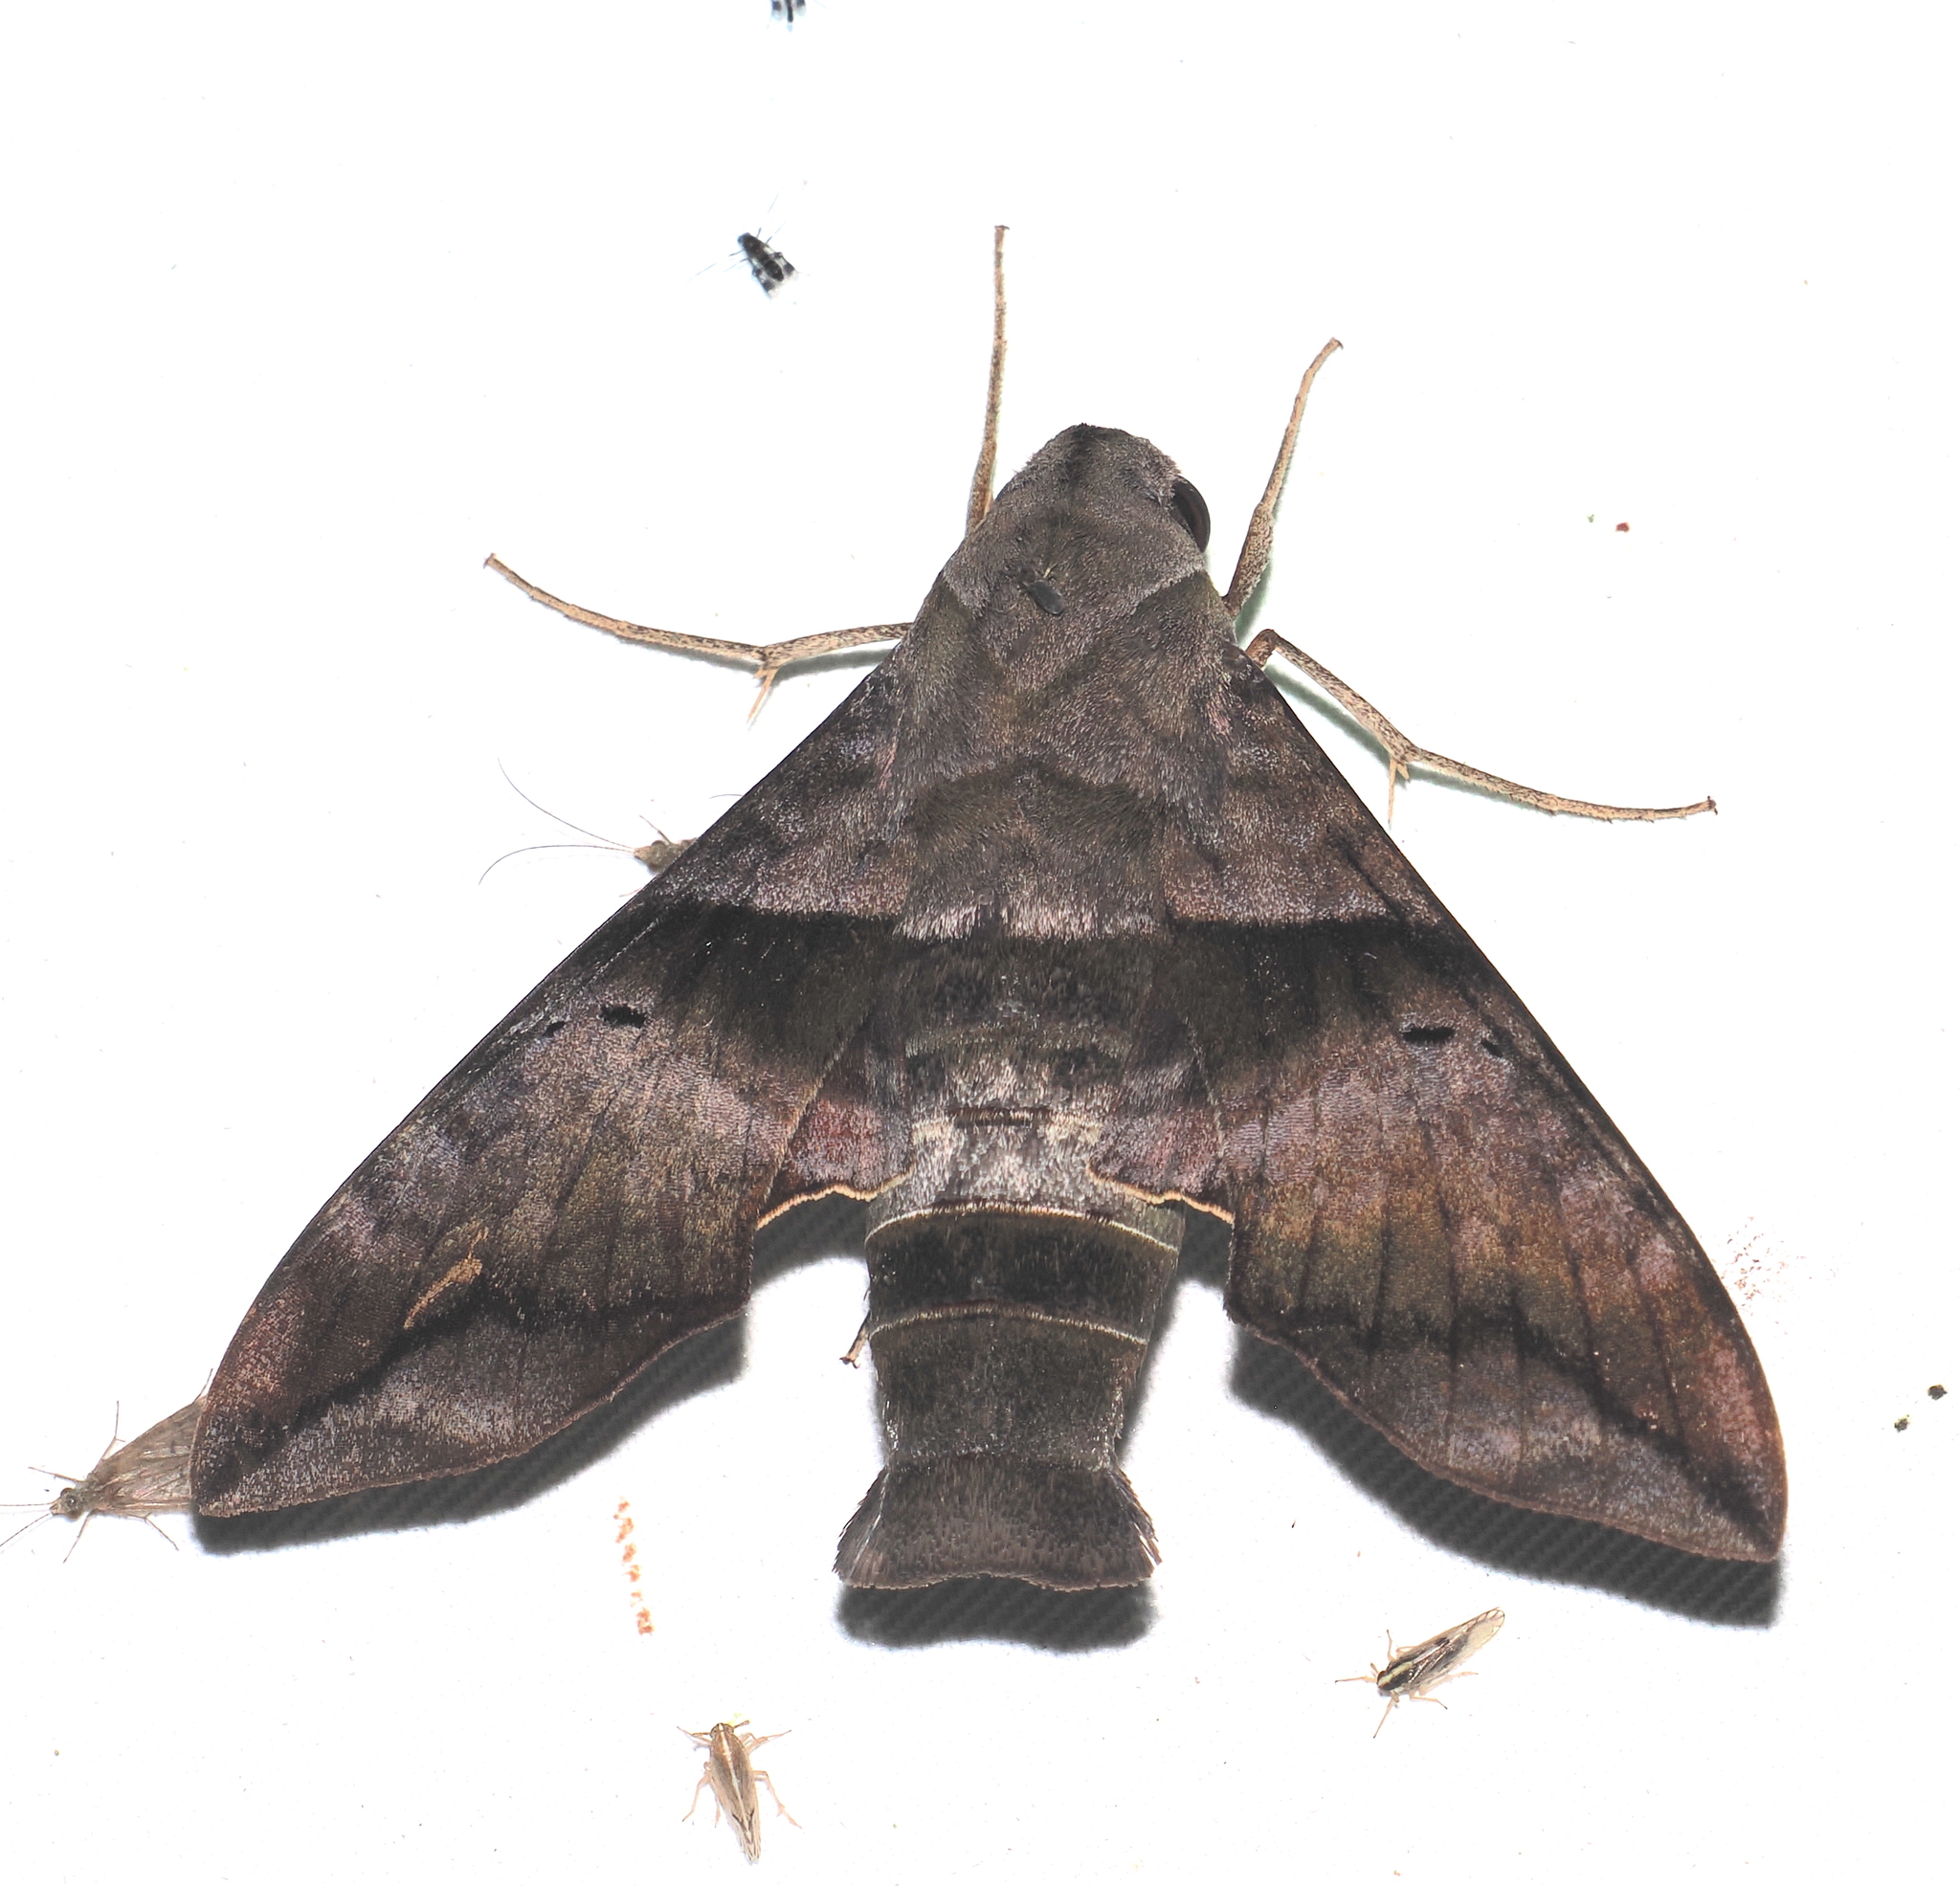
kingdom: Animalia
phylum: Arthropoda
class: Insecta
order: Lepidoptera
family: Sphingidae
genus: Perigonia
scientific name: Perigonia lusca
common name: Half-blind sphinx
